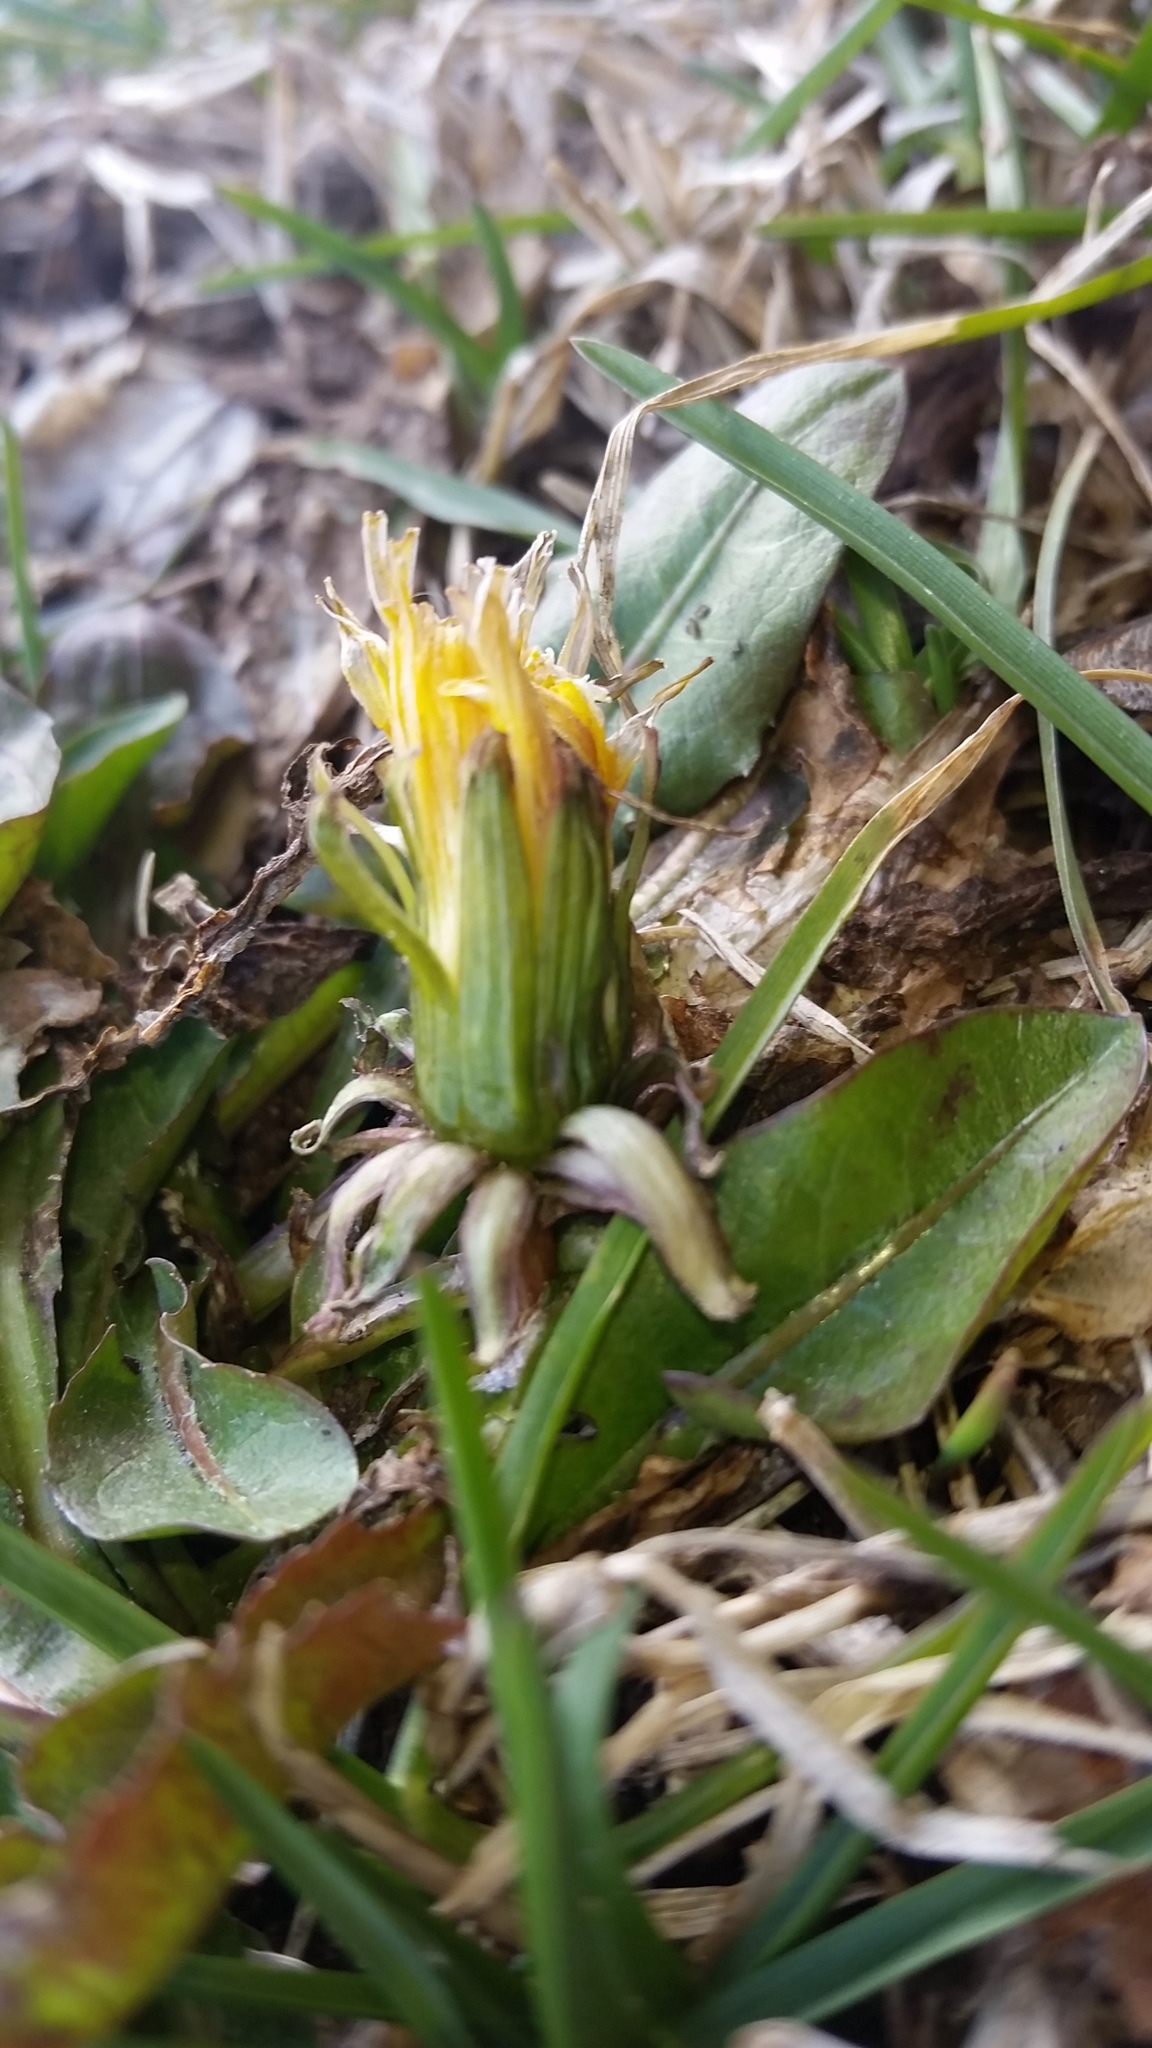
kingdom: Plantae
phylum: Tracheophyta
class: Magnoliopsida
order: Asterales
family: Asteraceae
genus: Taraxacum
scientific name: Taraxacum officinale
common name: Common dandelion
